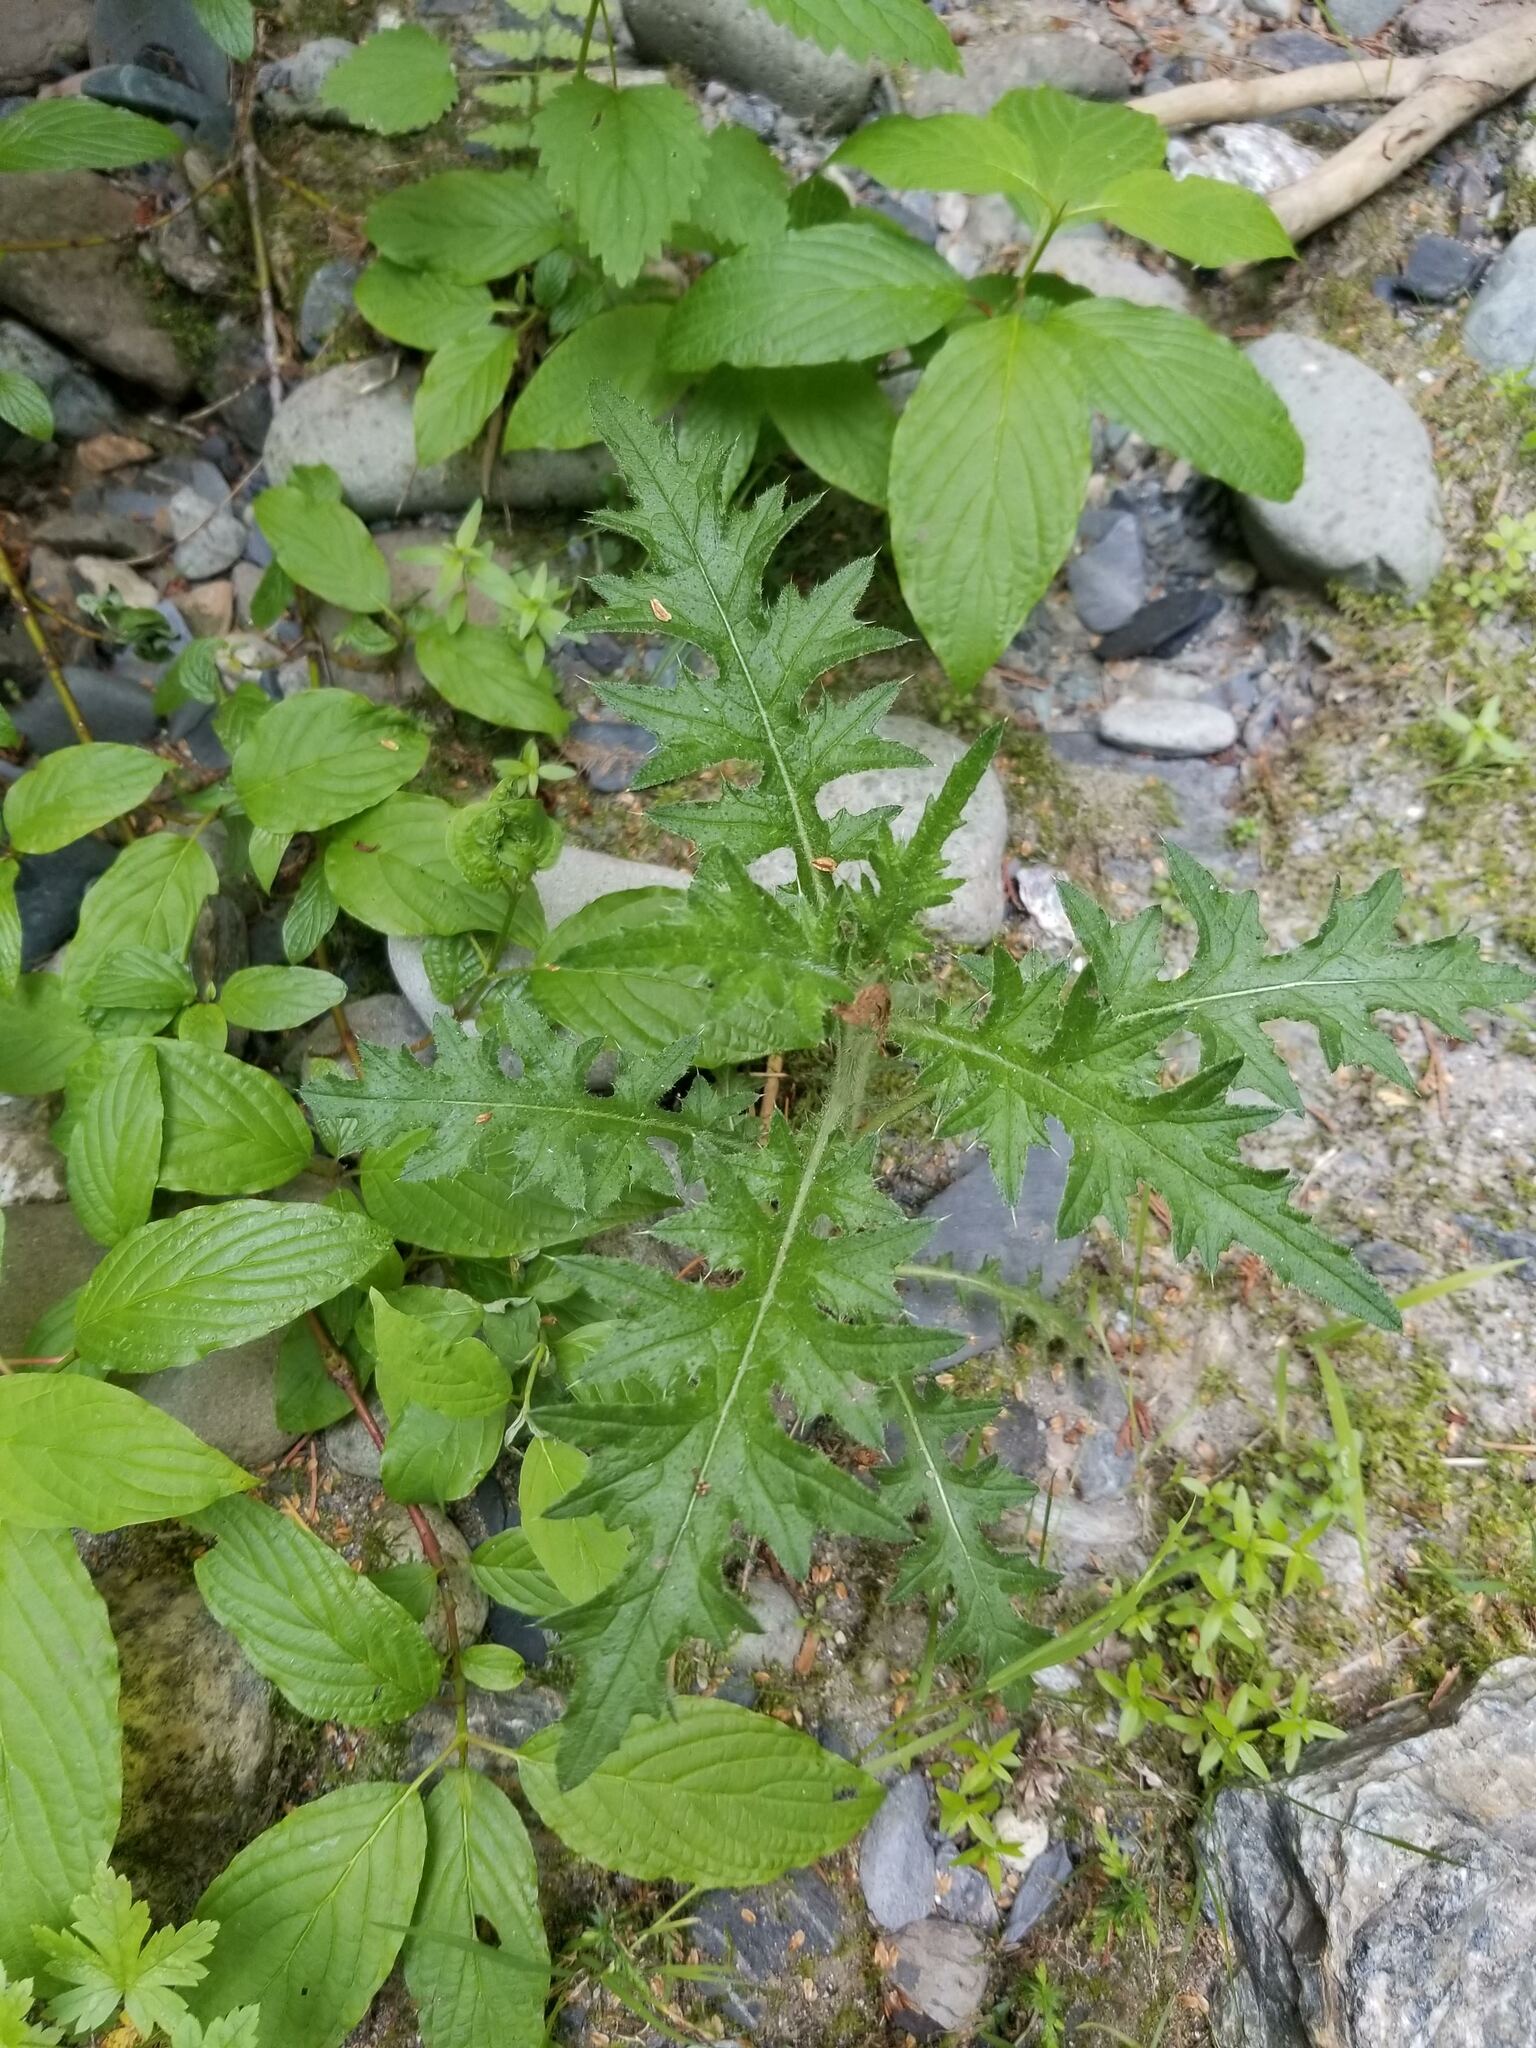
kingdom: Plantae
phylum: Tracheophyta
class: Magnoliopsida
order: Asterales
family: Asteraceae
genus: Cirsium
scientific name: Cirsium vulgare
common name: Bull thistle
